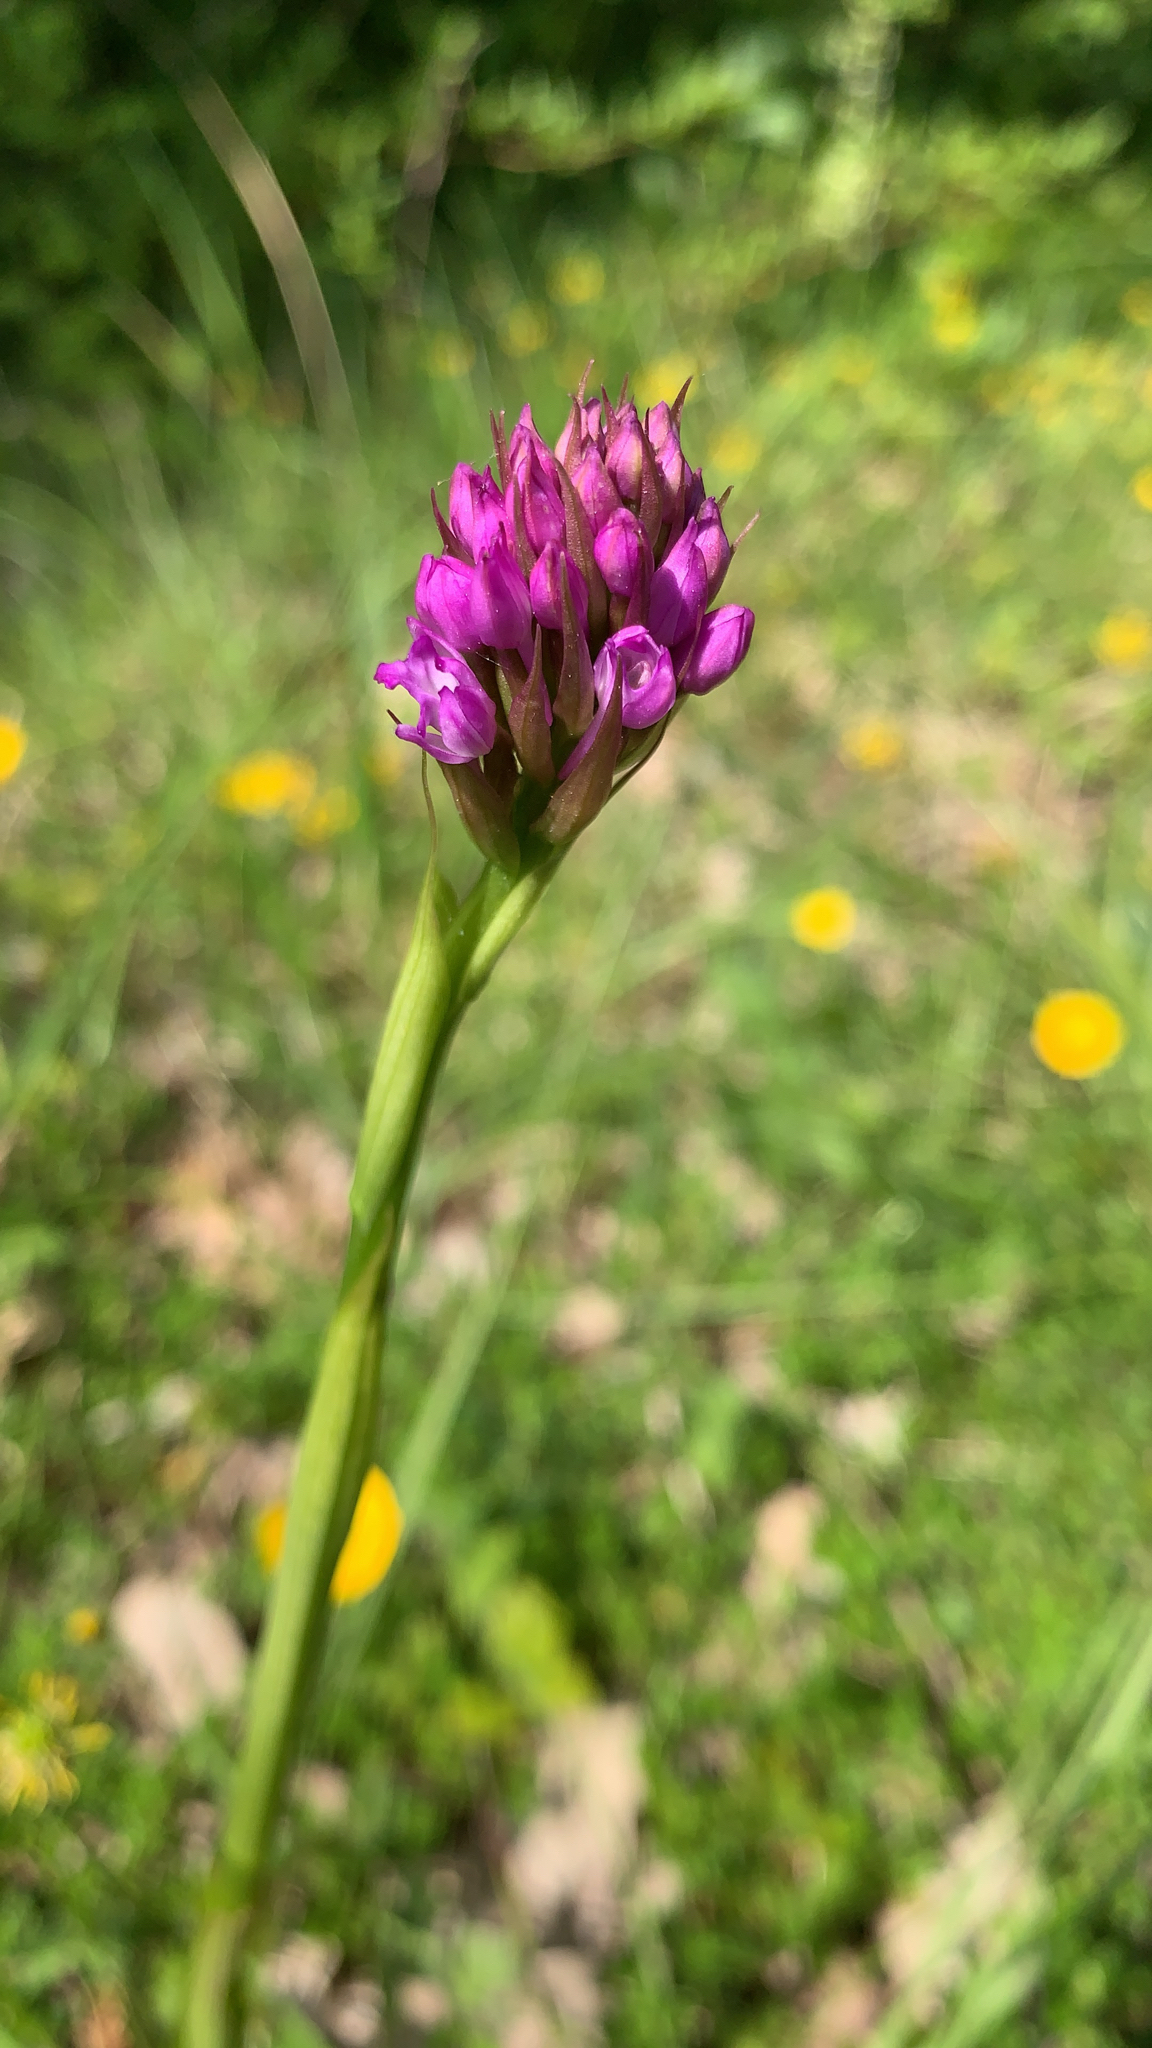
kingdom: Plantae
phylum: Tracheophyta
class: Liliopsida
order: Asparagales
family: Orchidaceae
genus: Anacamptis
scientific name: Anacamptis pyramidalis
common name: Pyramidal orchid
